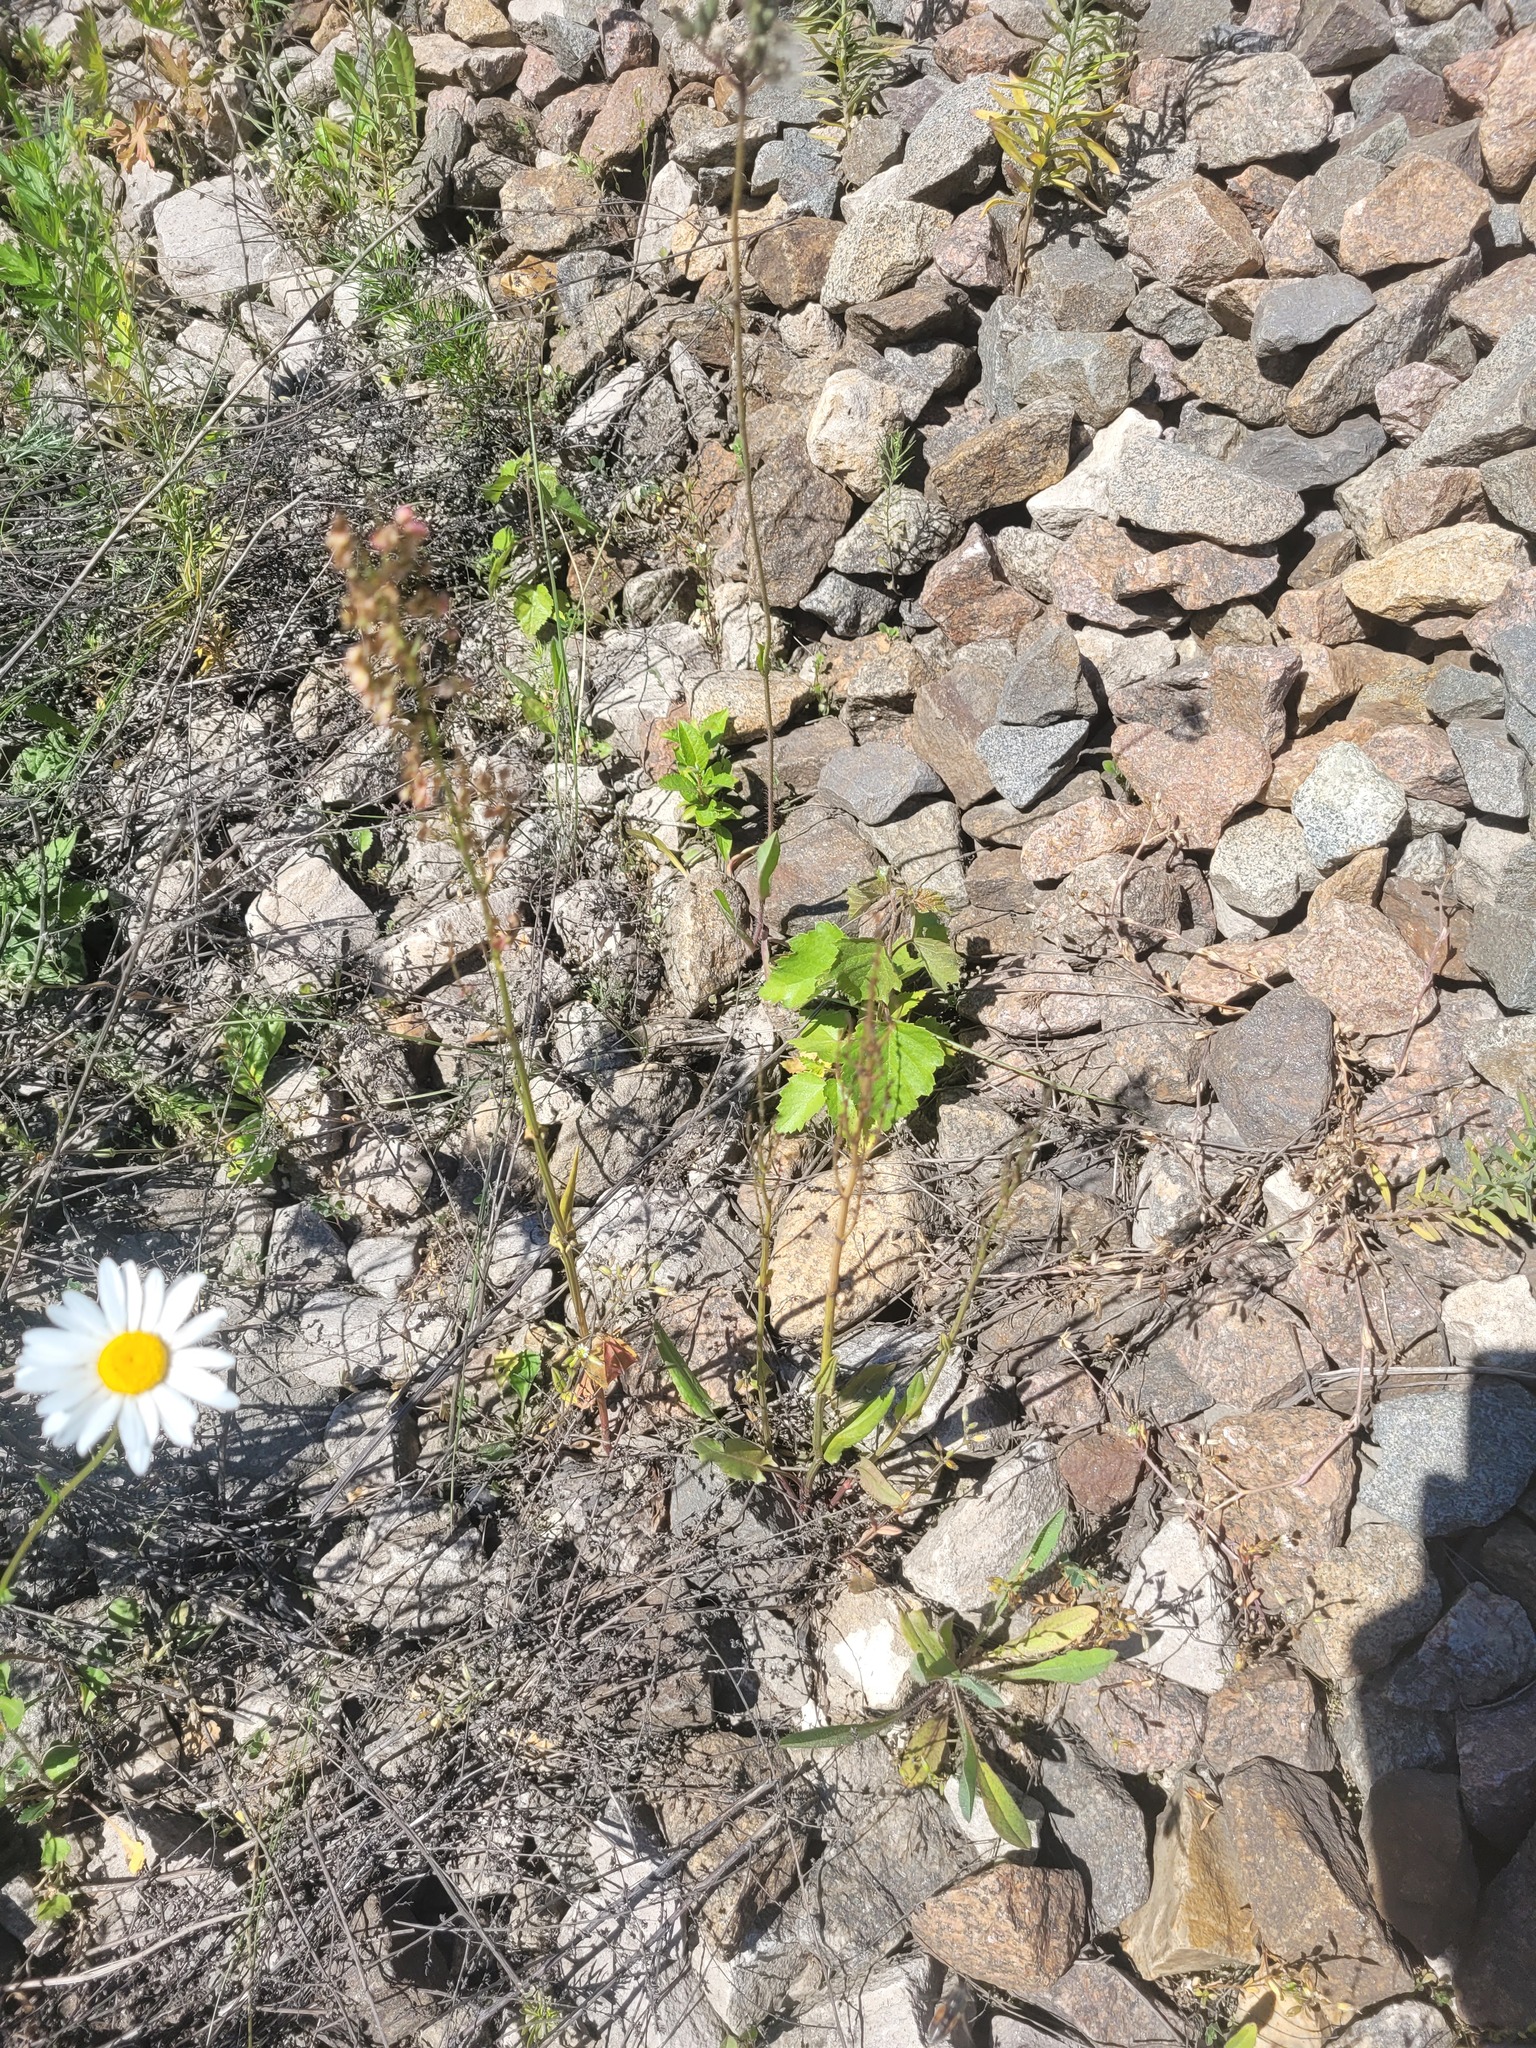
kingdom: Plantae
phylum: Tracheophyta
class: Magnoliopsida
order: Caryophyllales
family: Polygonaceae
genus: Rumex
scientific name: Rumex acetosa
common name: Garden sorrel
